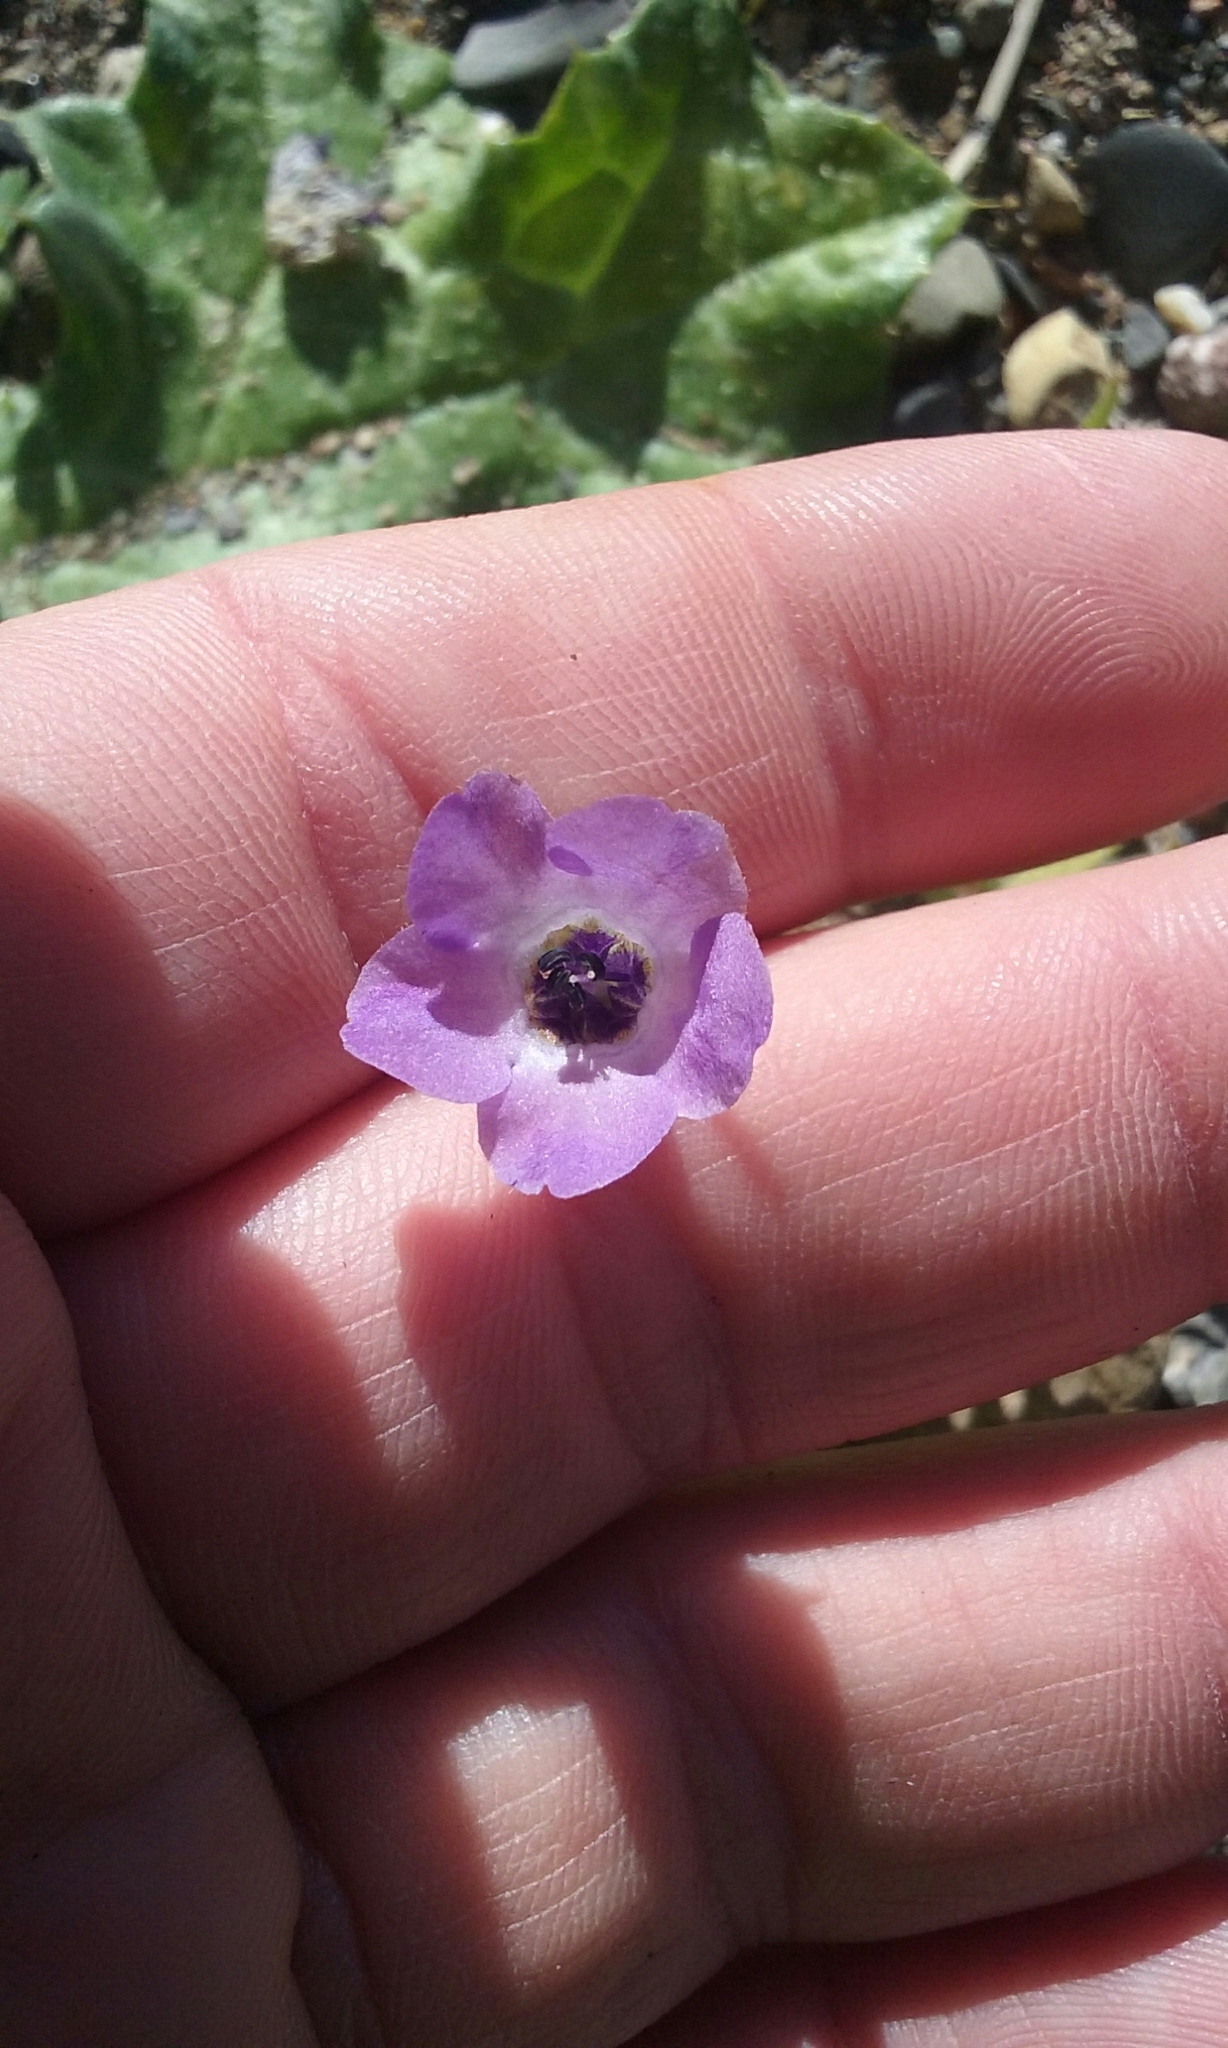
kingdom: Plantae
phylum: Tracheophyta
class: Magnoliopsida
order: Boraginales
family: Hydrophyllaceae
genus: Pholistoma
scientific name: Pholistoma auritum
